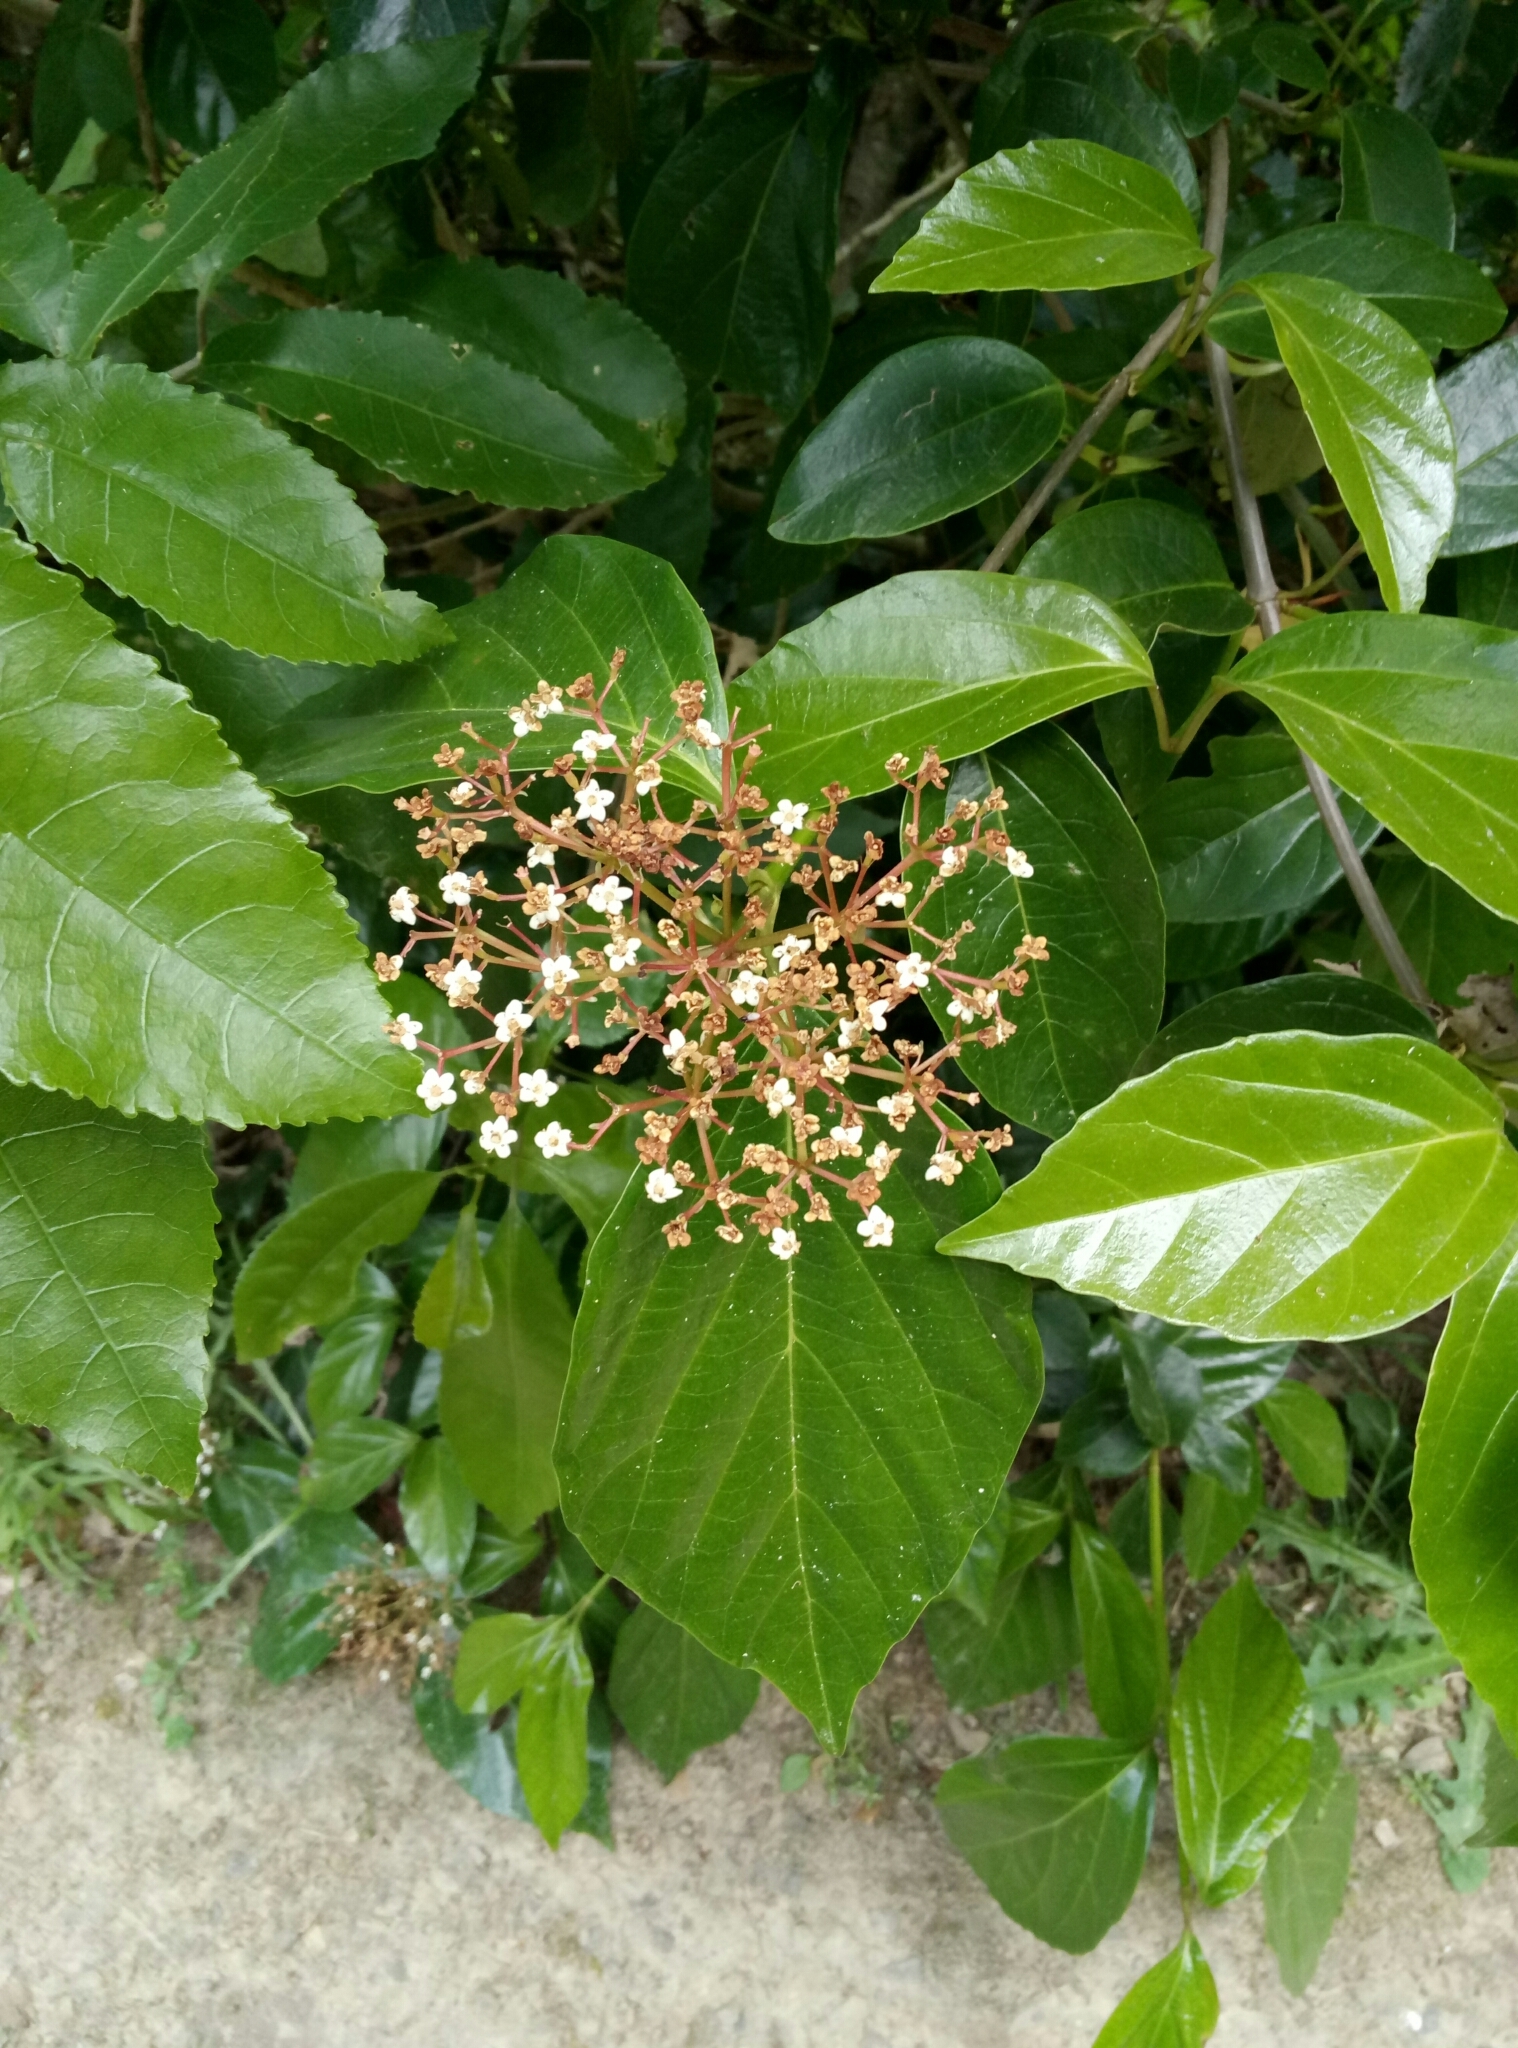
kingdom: Plantae
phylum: Tracheophyta
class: Magnoliopsida
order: Dipsacales
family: Viburnaceae
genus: Viburnum
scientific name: Viburnum japonicum
